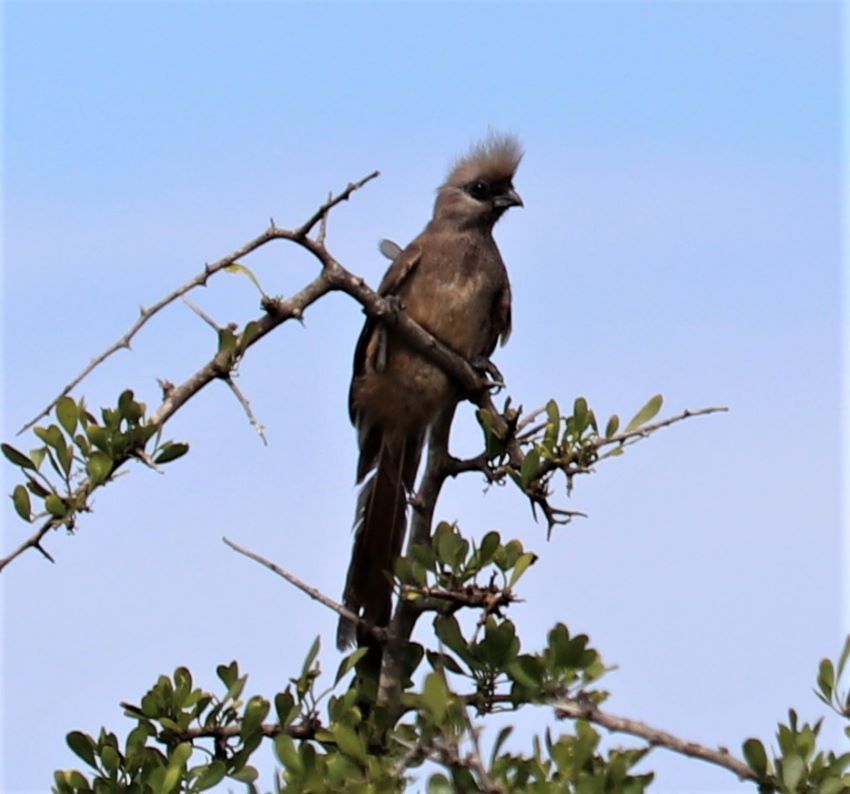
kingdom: Animalia
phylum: Chordata
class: Aves
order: Coliiformes
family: Coliidae
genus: Colius
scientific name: Colius striatus
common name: Speckled mousebird
